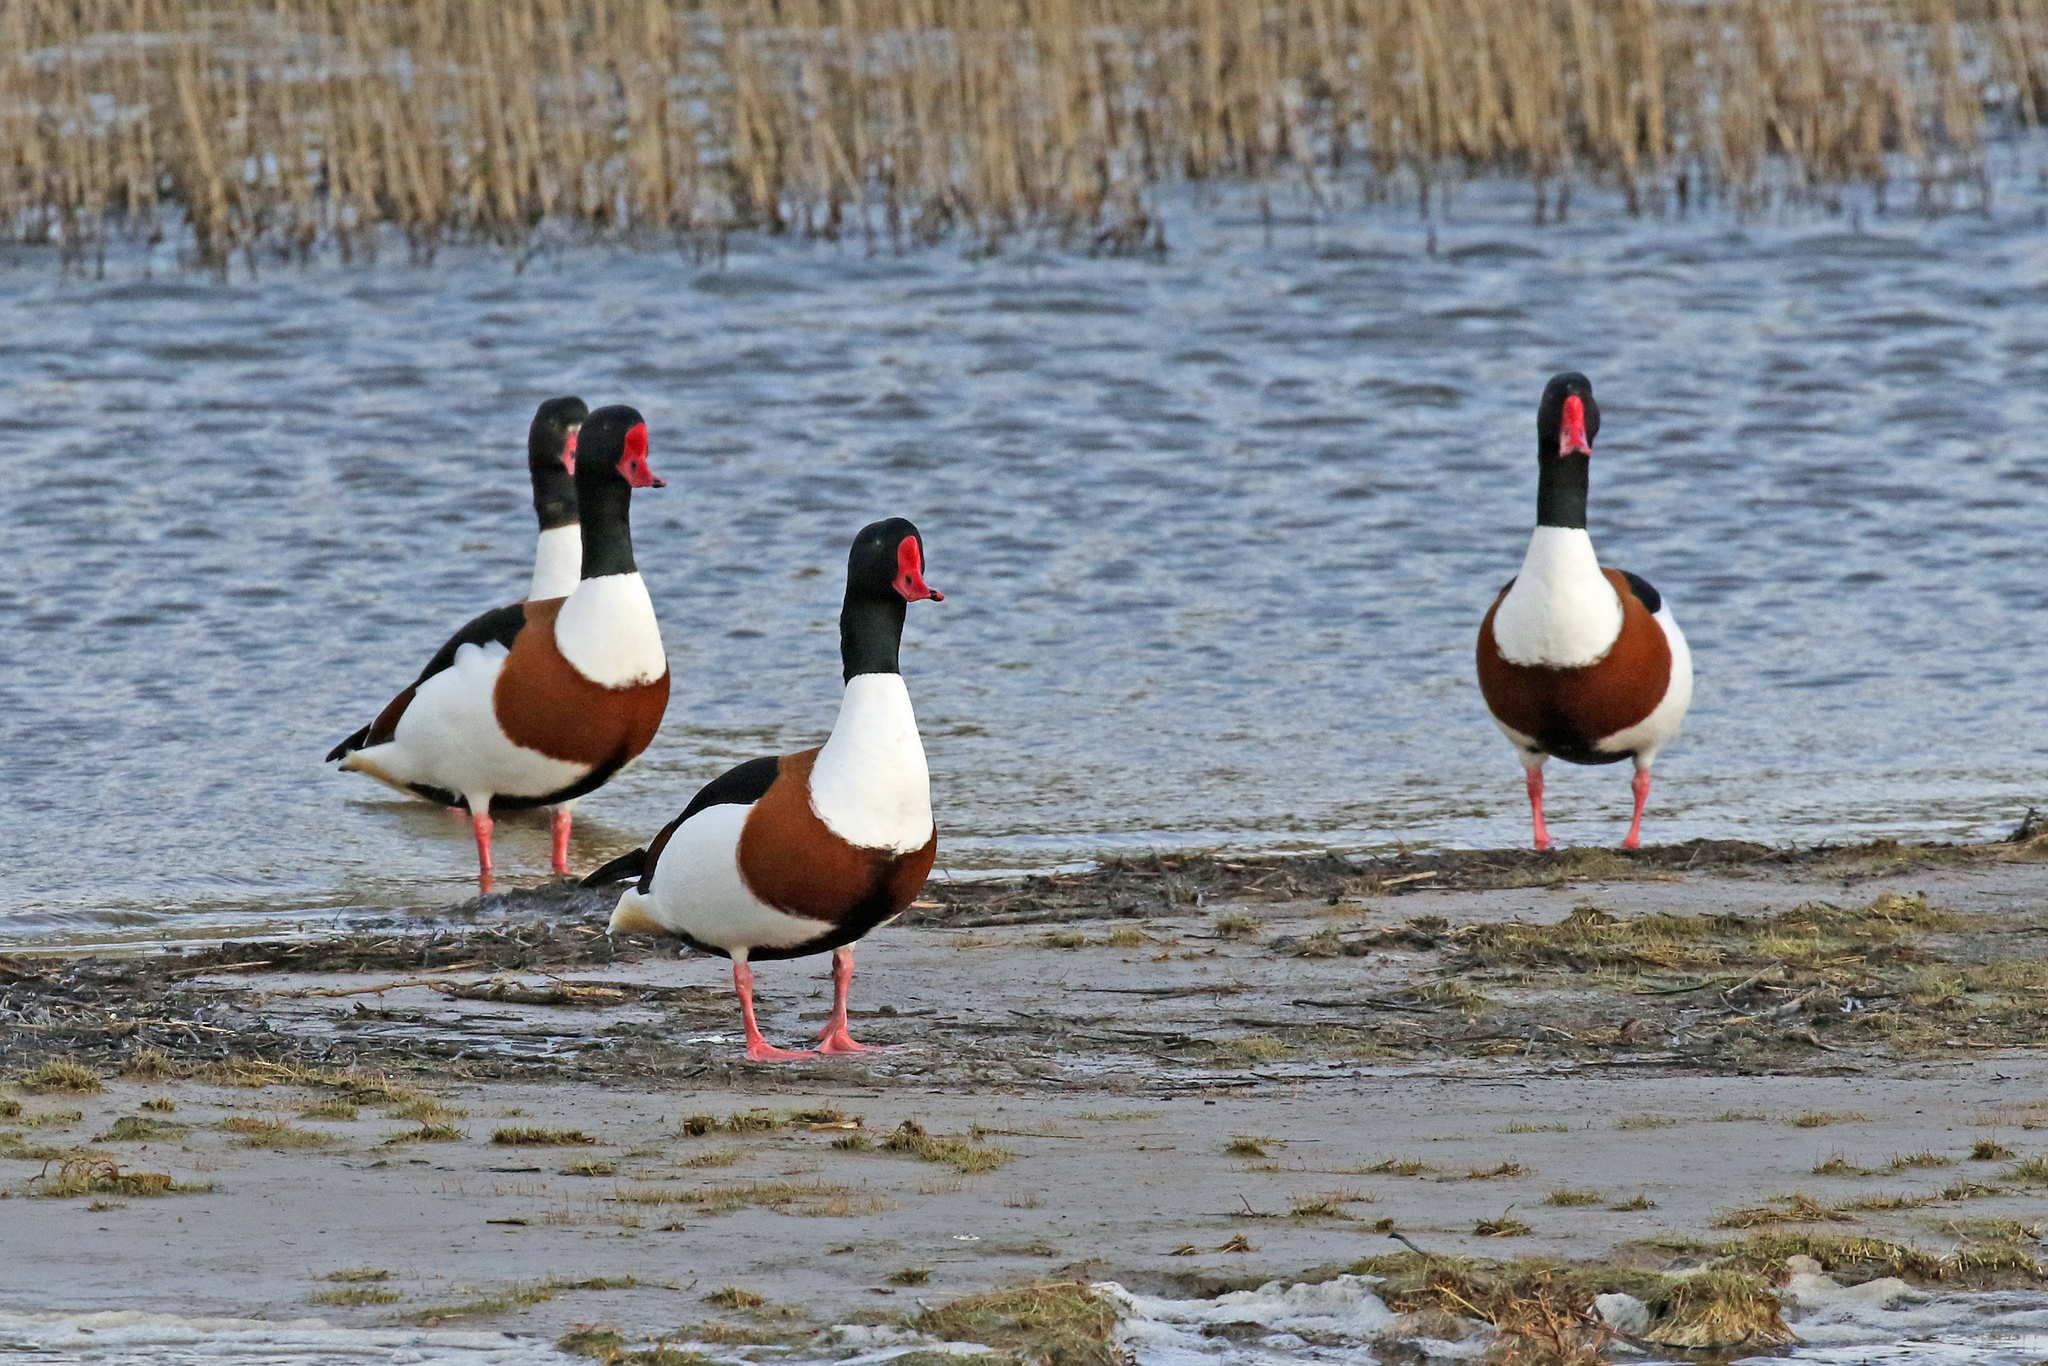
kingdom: Animalia
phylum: Chordata
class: Aves
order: Anseriformes
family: Anatidae
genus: Tadorna
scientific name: Tadorna tadorna
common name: Common shelduck
